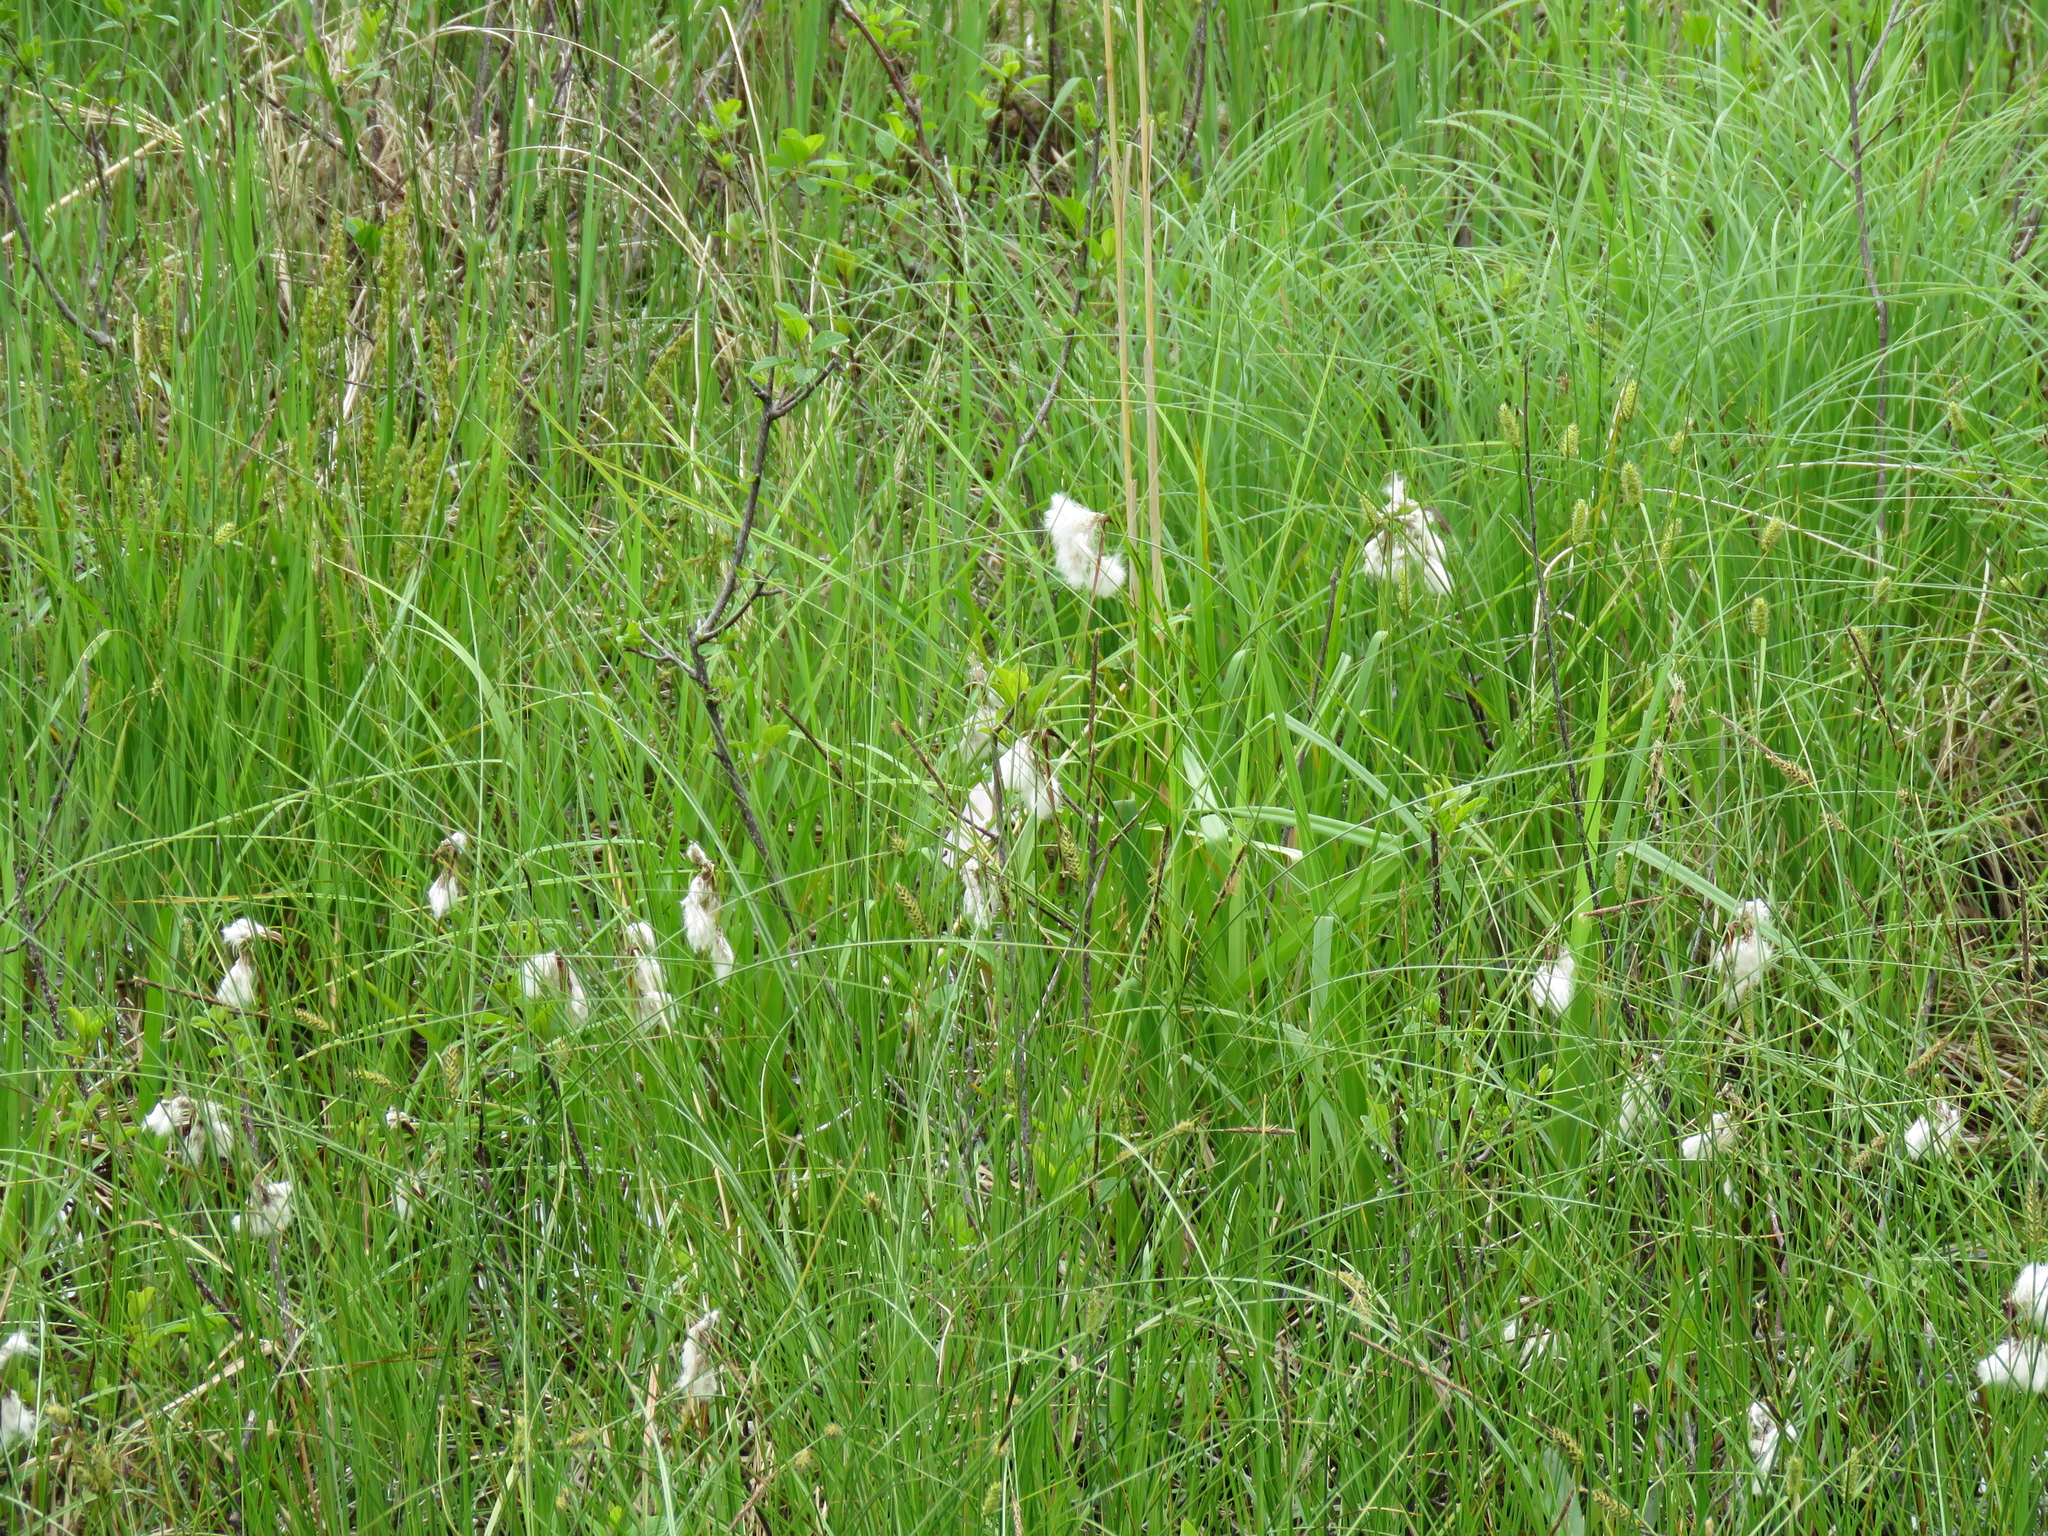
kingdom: Plantae
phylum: Tracheophyta
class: Liliopsida
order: Poales
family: Cyperaceae
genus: Eriophorum
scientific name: Eriophorum angustifolium
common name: Common cottongrass
